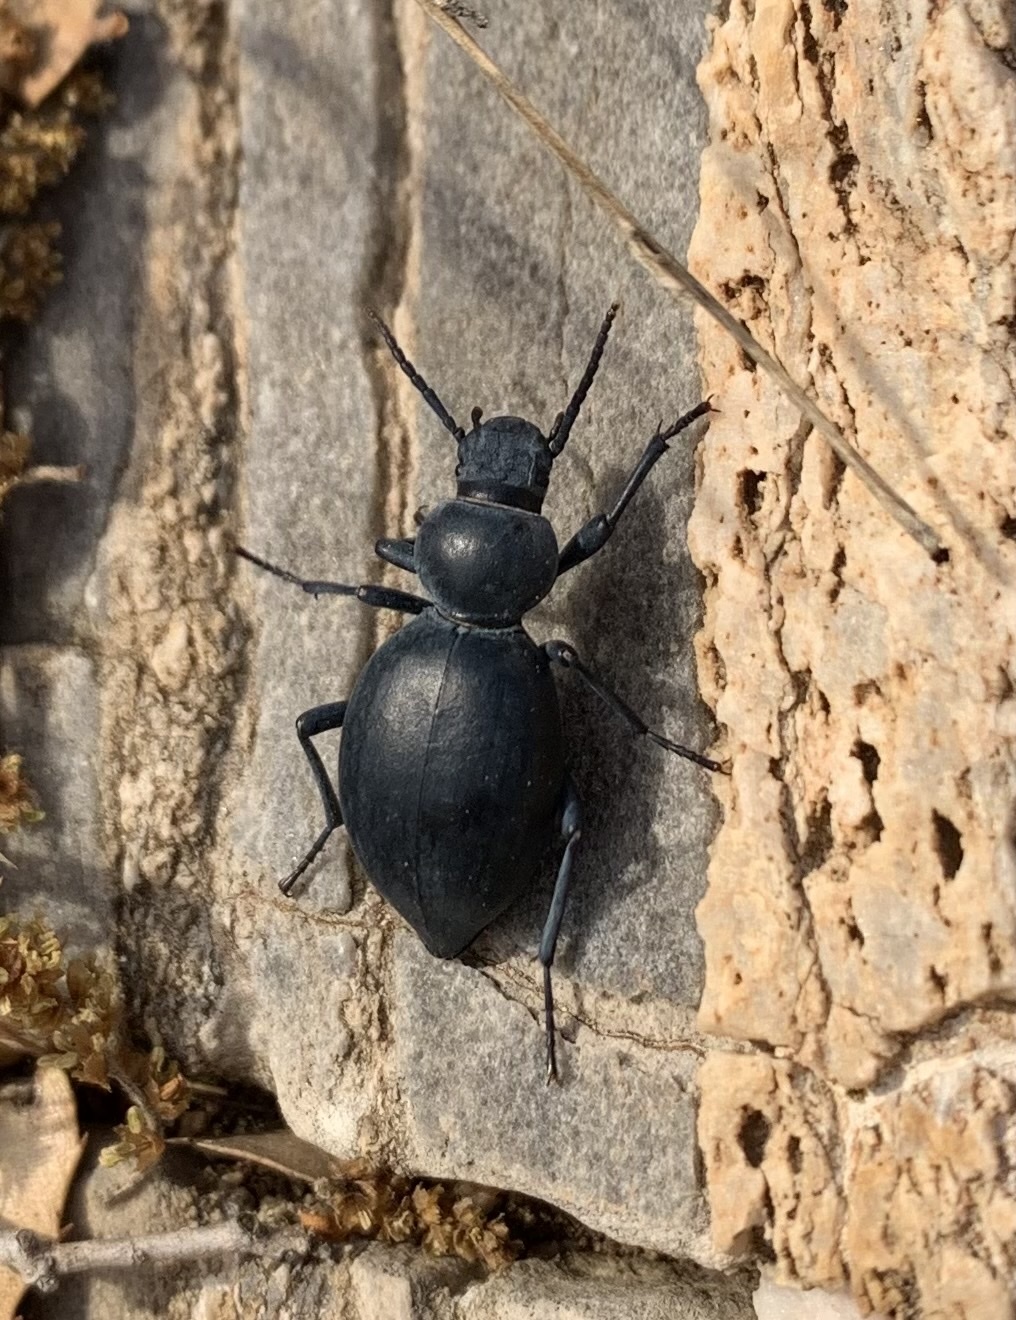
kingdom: Animalia
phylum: Arthropoda
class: Insecta
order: Coleoptera
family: Tenebrionidae
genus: Tentyria
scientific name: Tentyria rotundata
